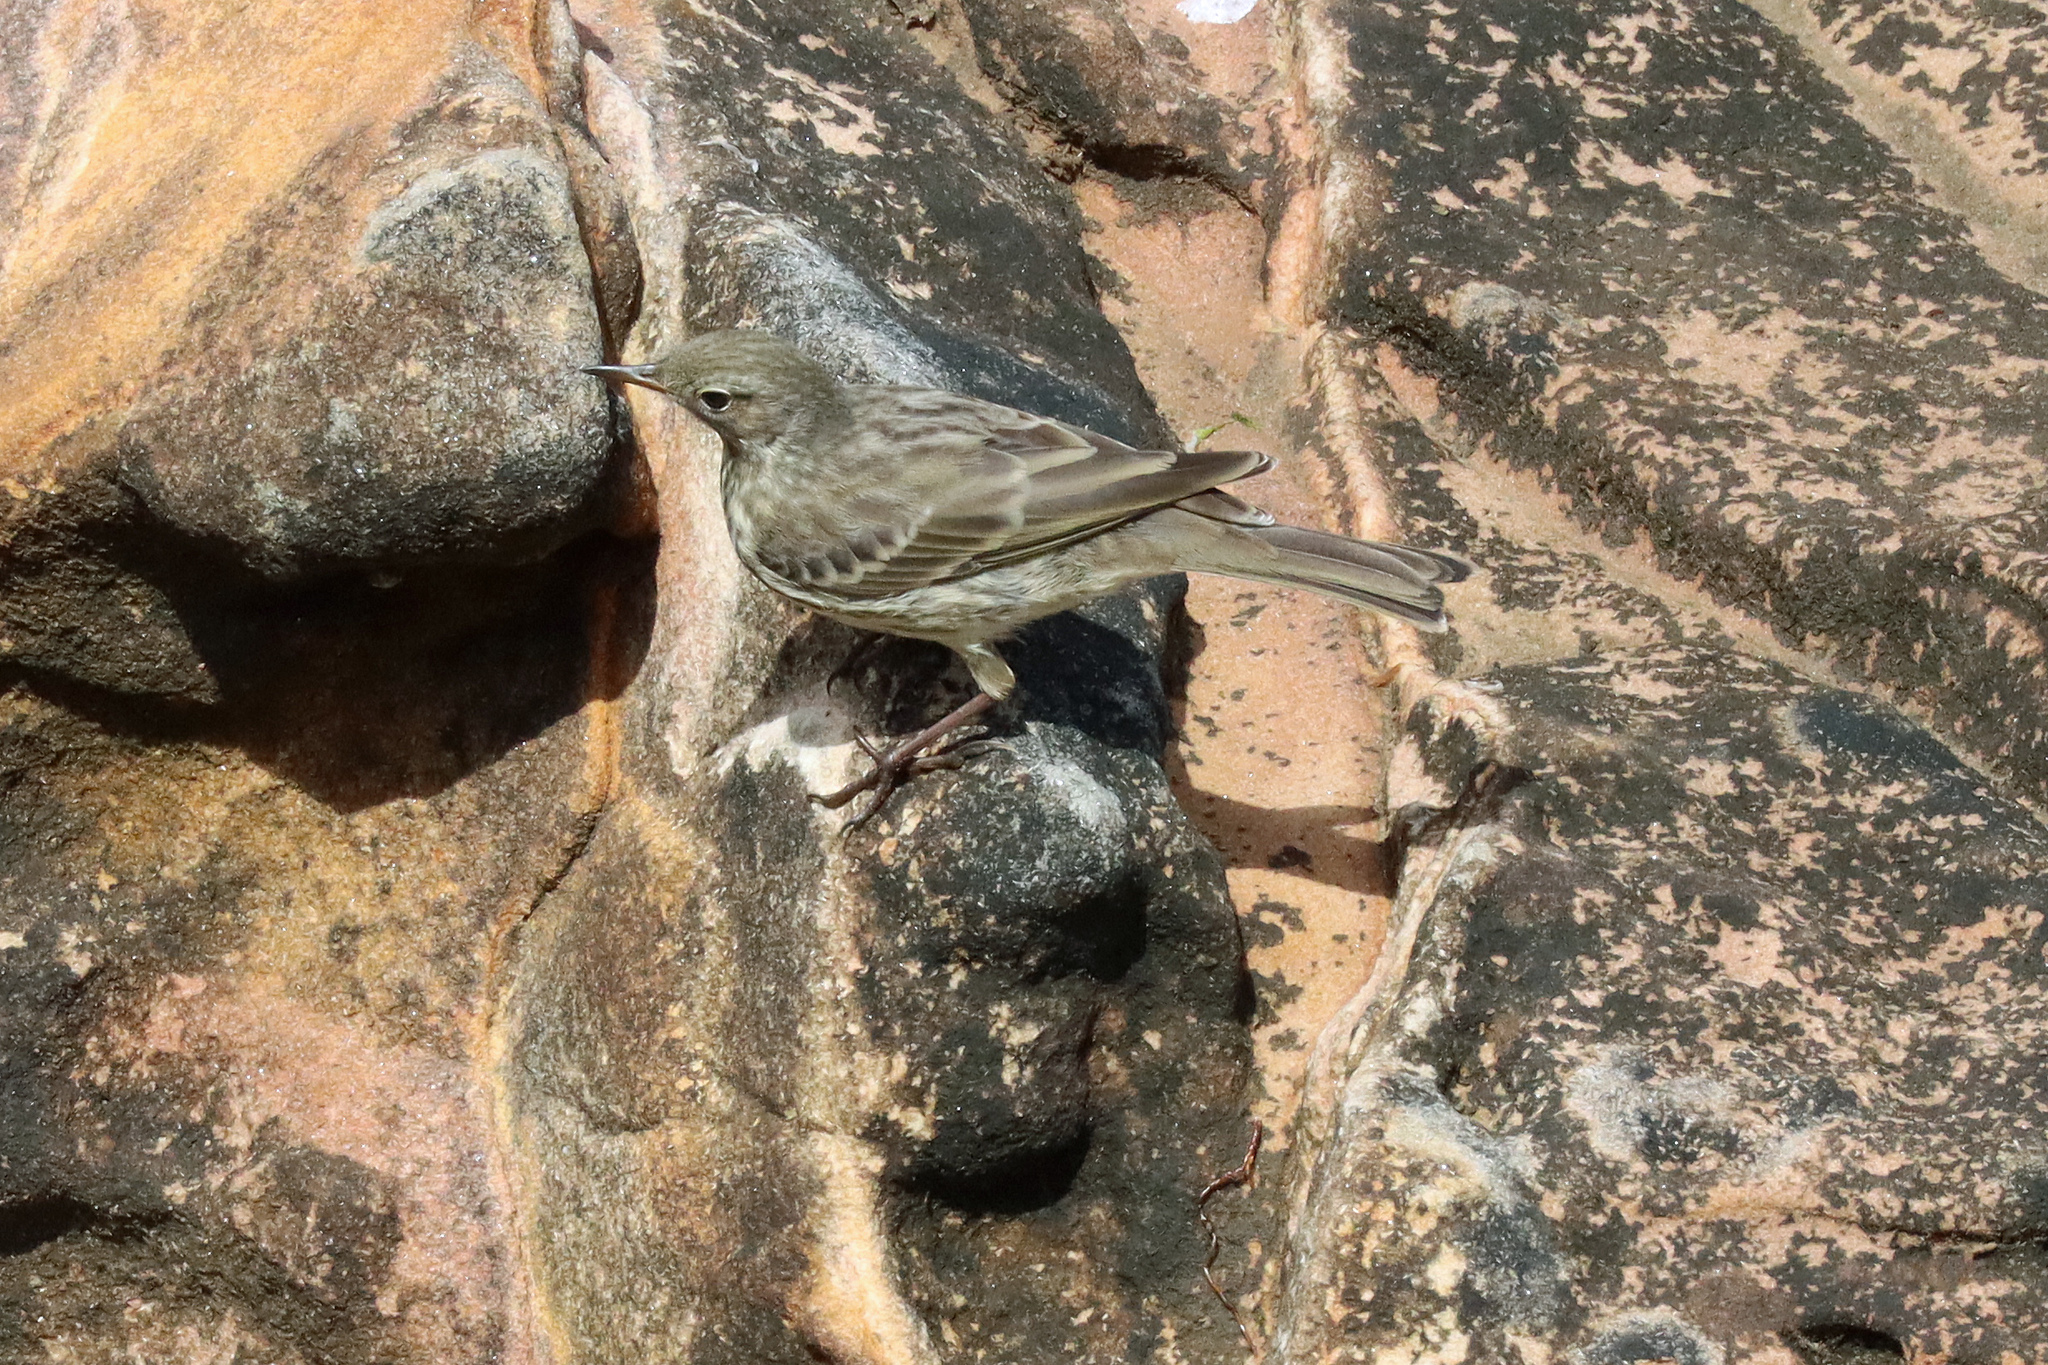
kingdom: Animalia
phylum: Chordata
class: Aves
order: Passeriformes
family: Motacillidae
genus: Anthus
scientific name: Anthus petrosus
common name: Eurasian rock pipit
